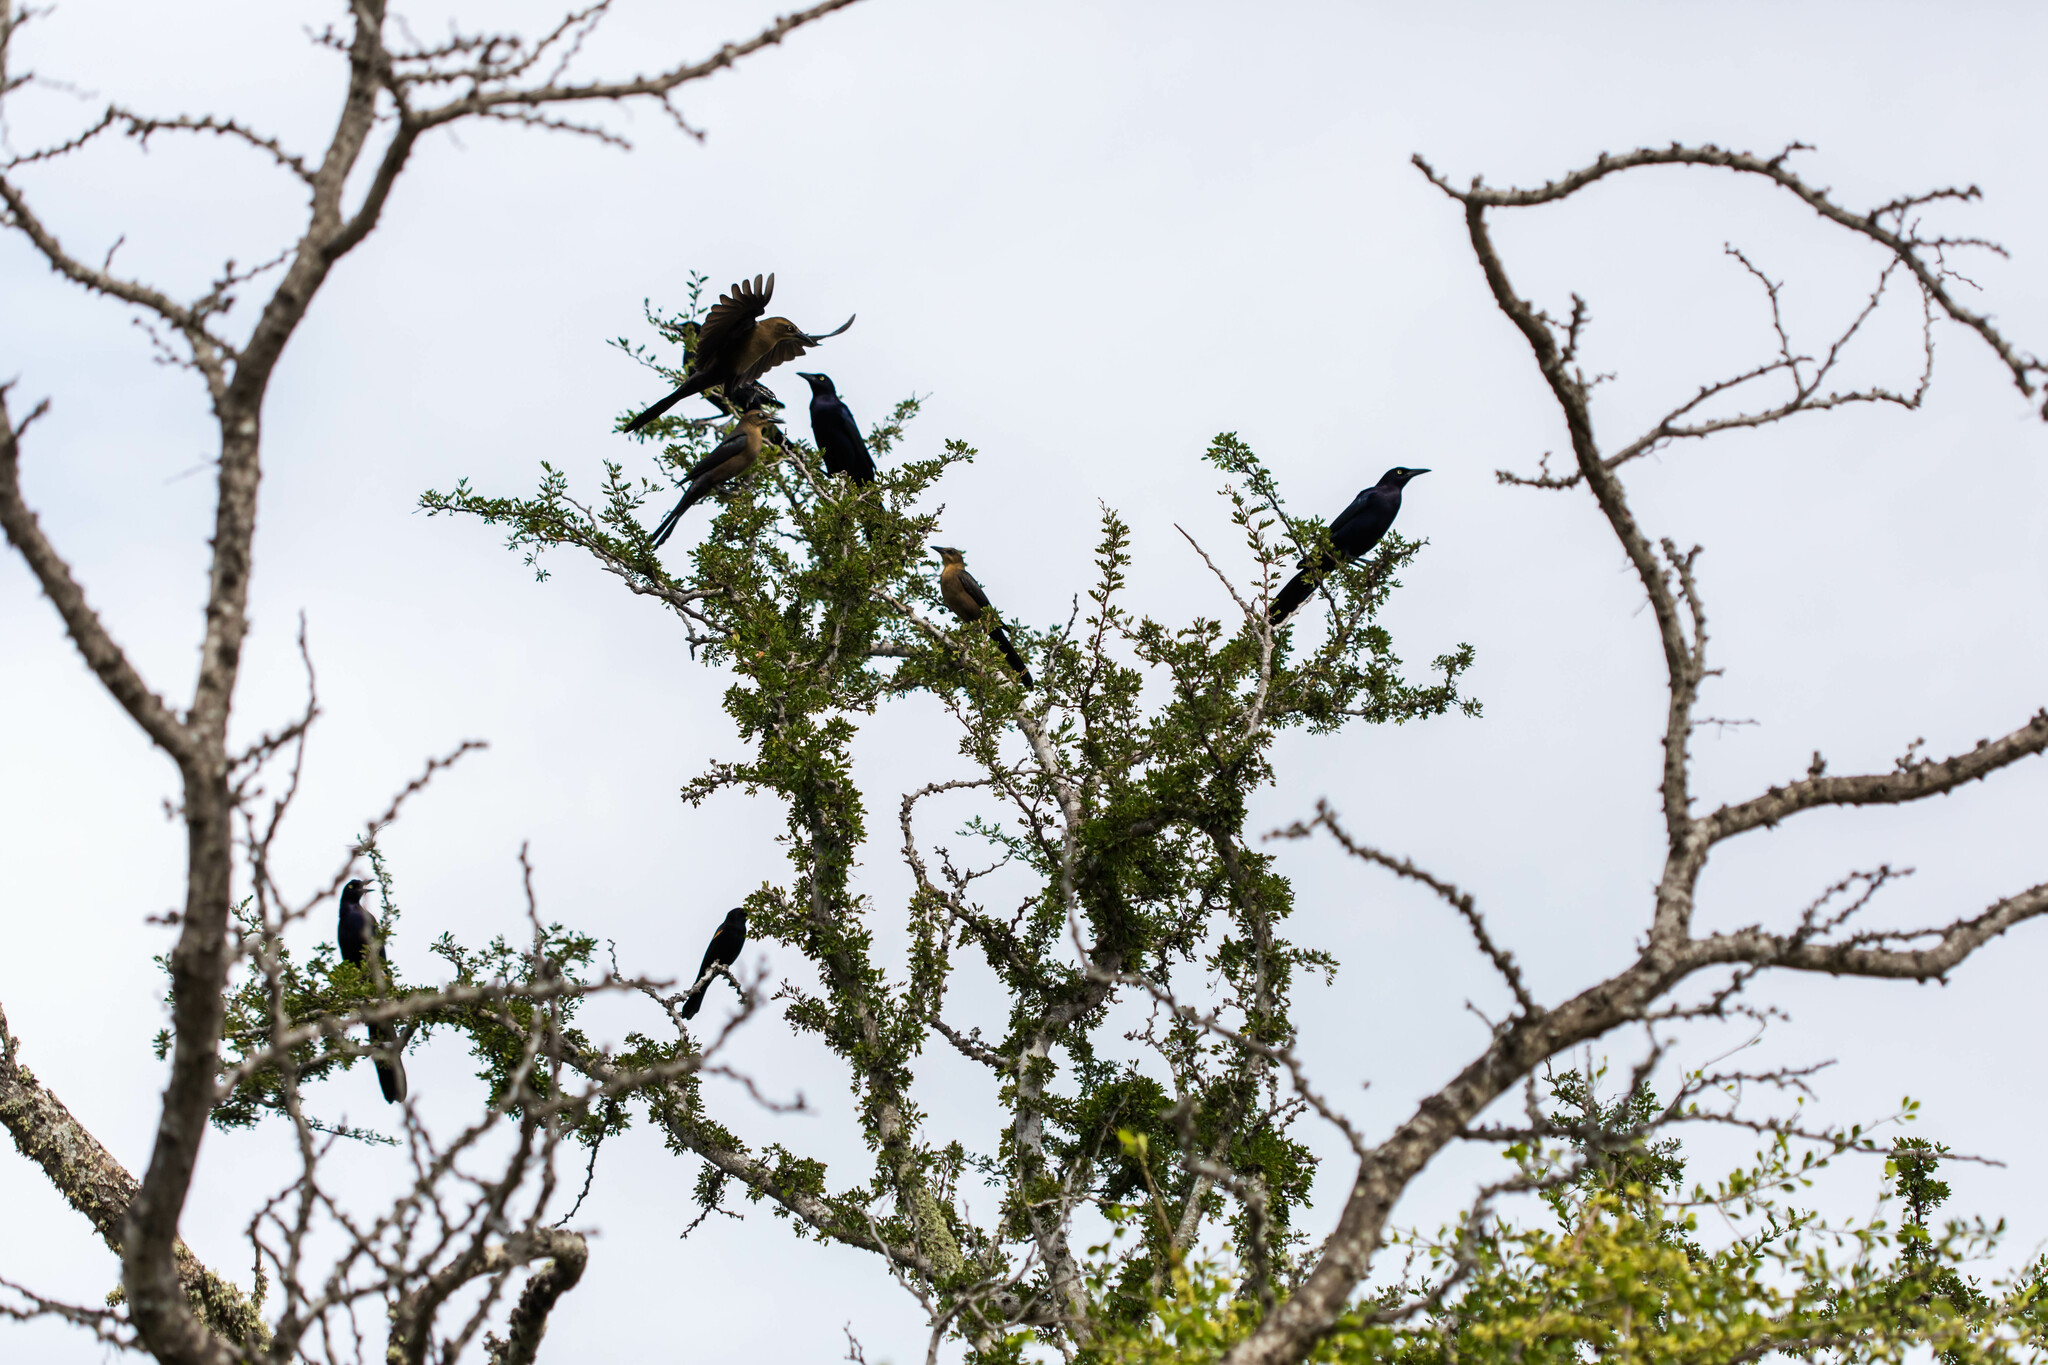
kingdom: Animalia
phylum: Chordata
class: Aves
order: Passeriformes
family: Icteridae
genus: Quiscalus
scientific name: Quiscalus mexicanus
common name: Great-tailed grackle
